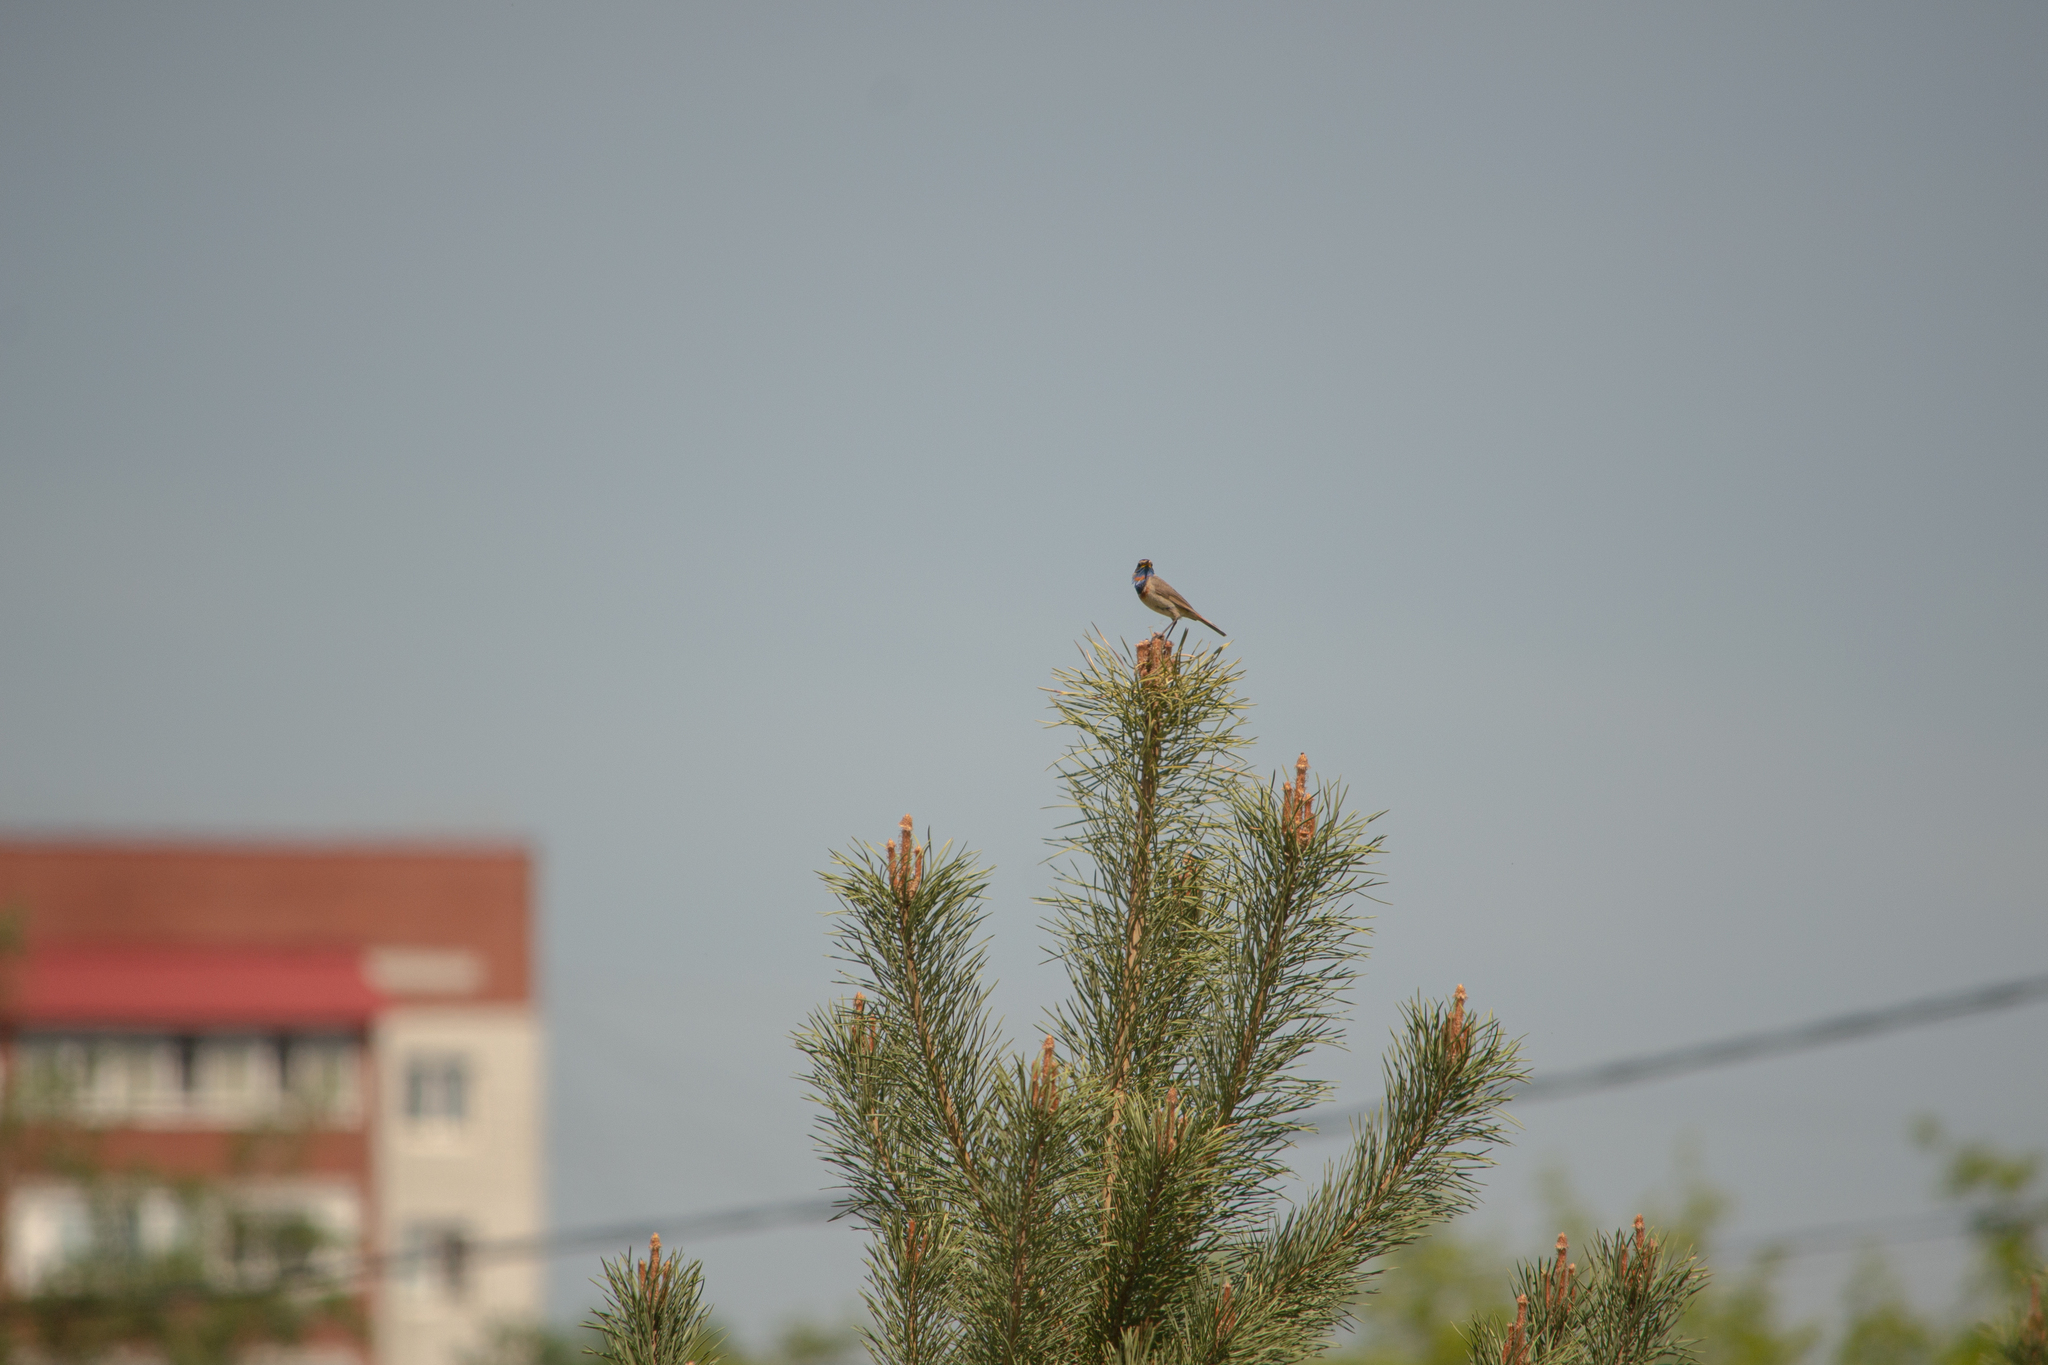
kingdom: Animalia
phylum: Chordata
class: Aves
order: Passeriformes
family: Muscicapidae
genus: Luscinia
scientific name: Luscinia svecica
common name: Bluethroat
